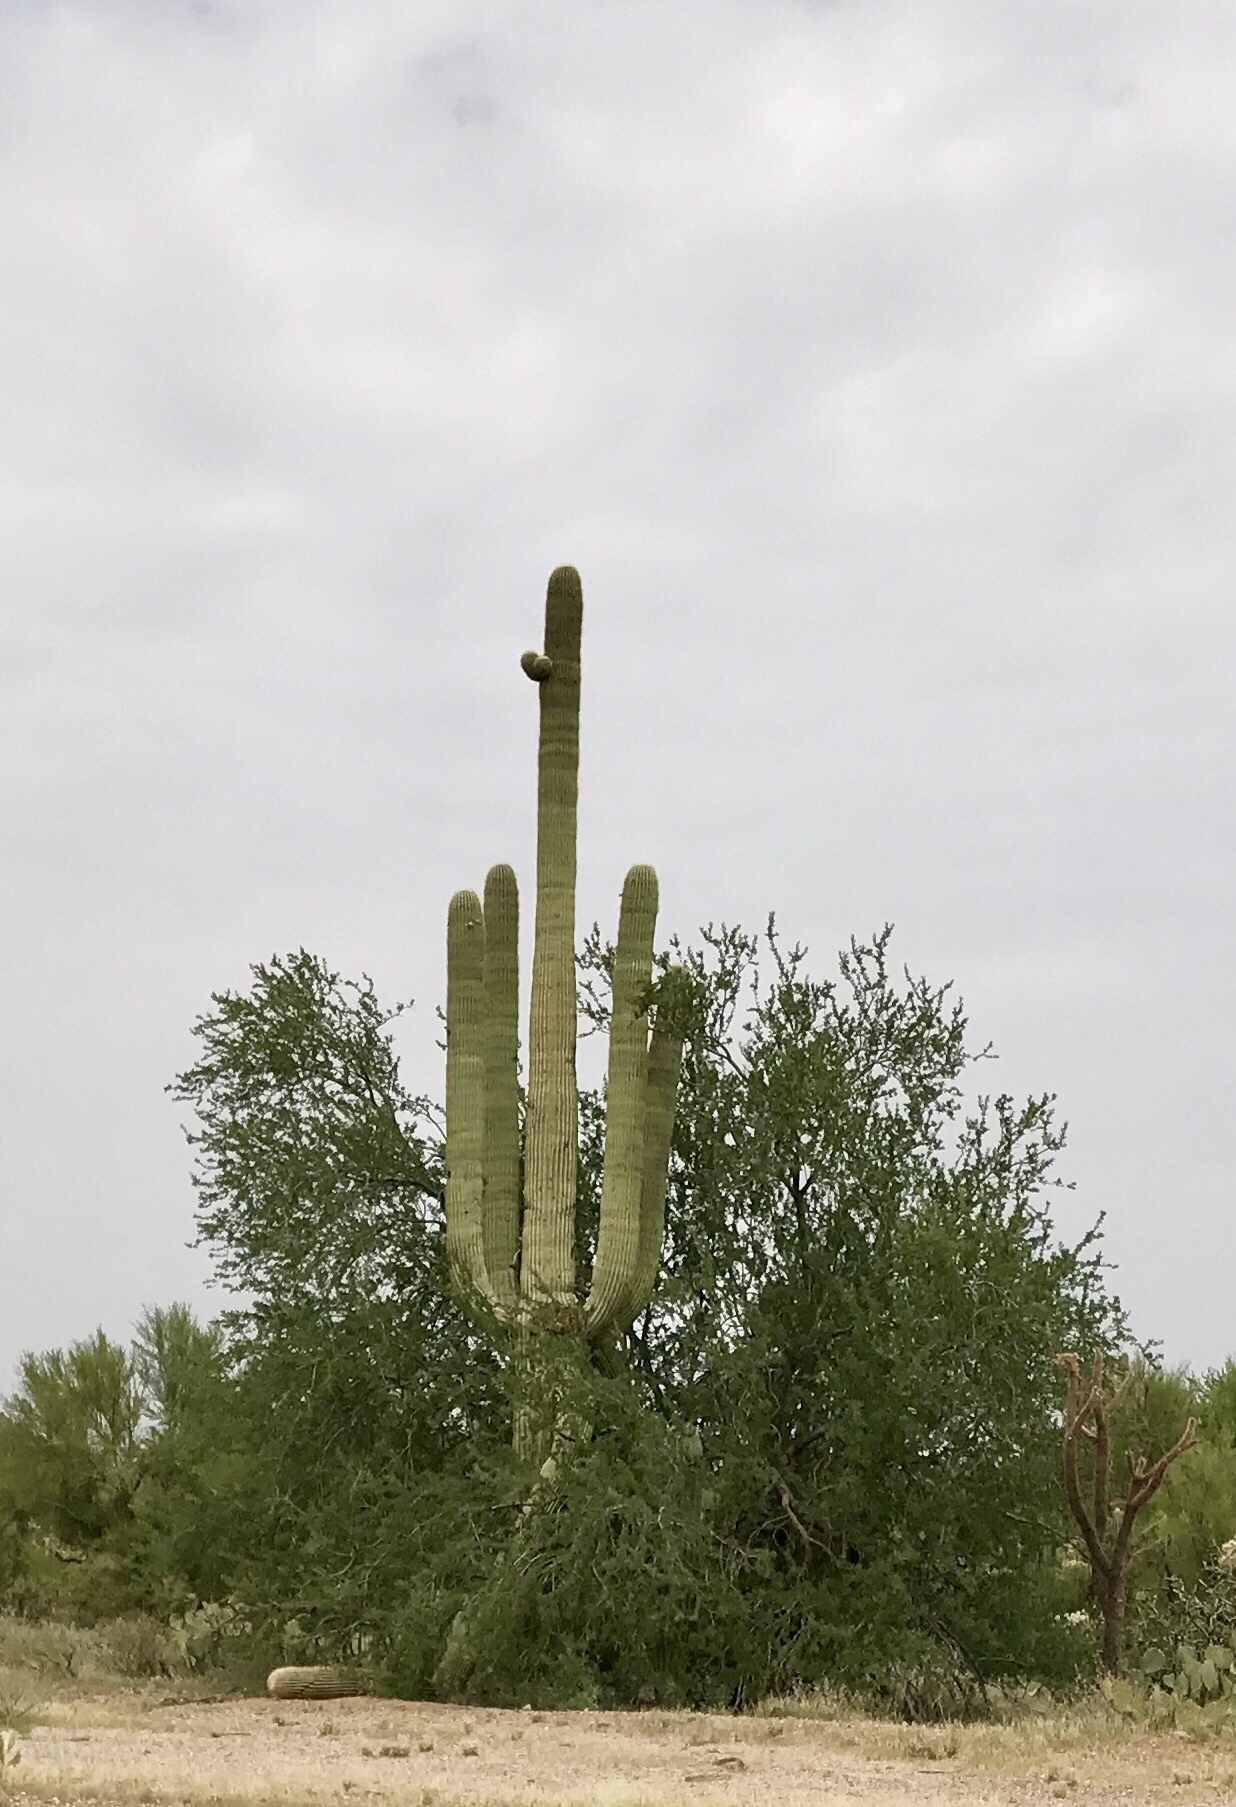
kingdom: Plantae
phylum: Tracheophyta
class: Magnoliopsida
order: Caryophyllales
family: Cactaceae
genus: Carnegiea
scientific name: Carnegiea gigantea
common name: Saguaro
